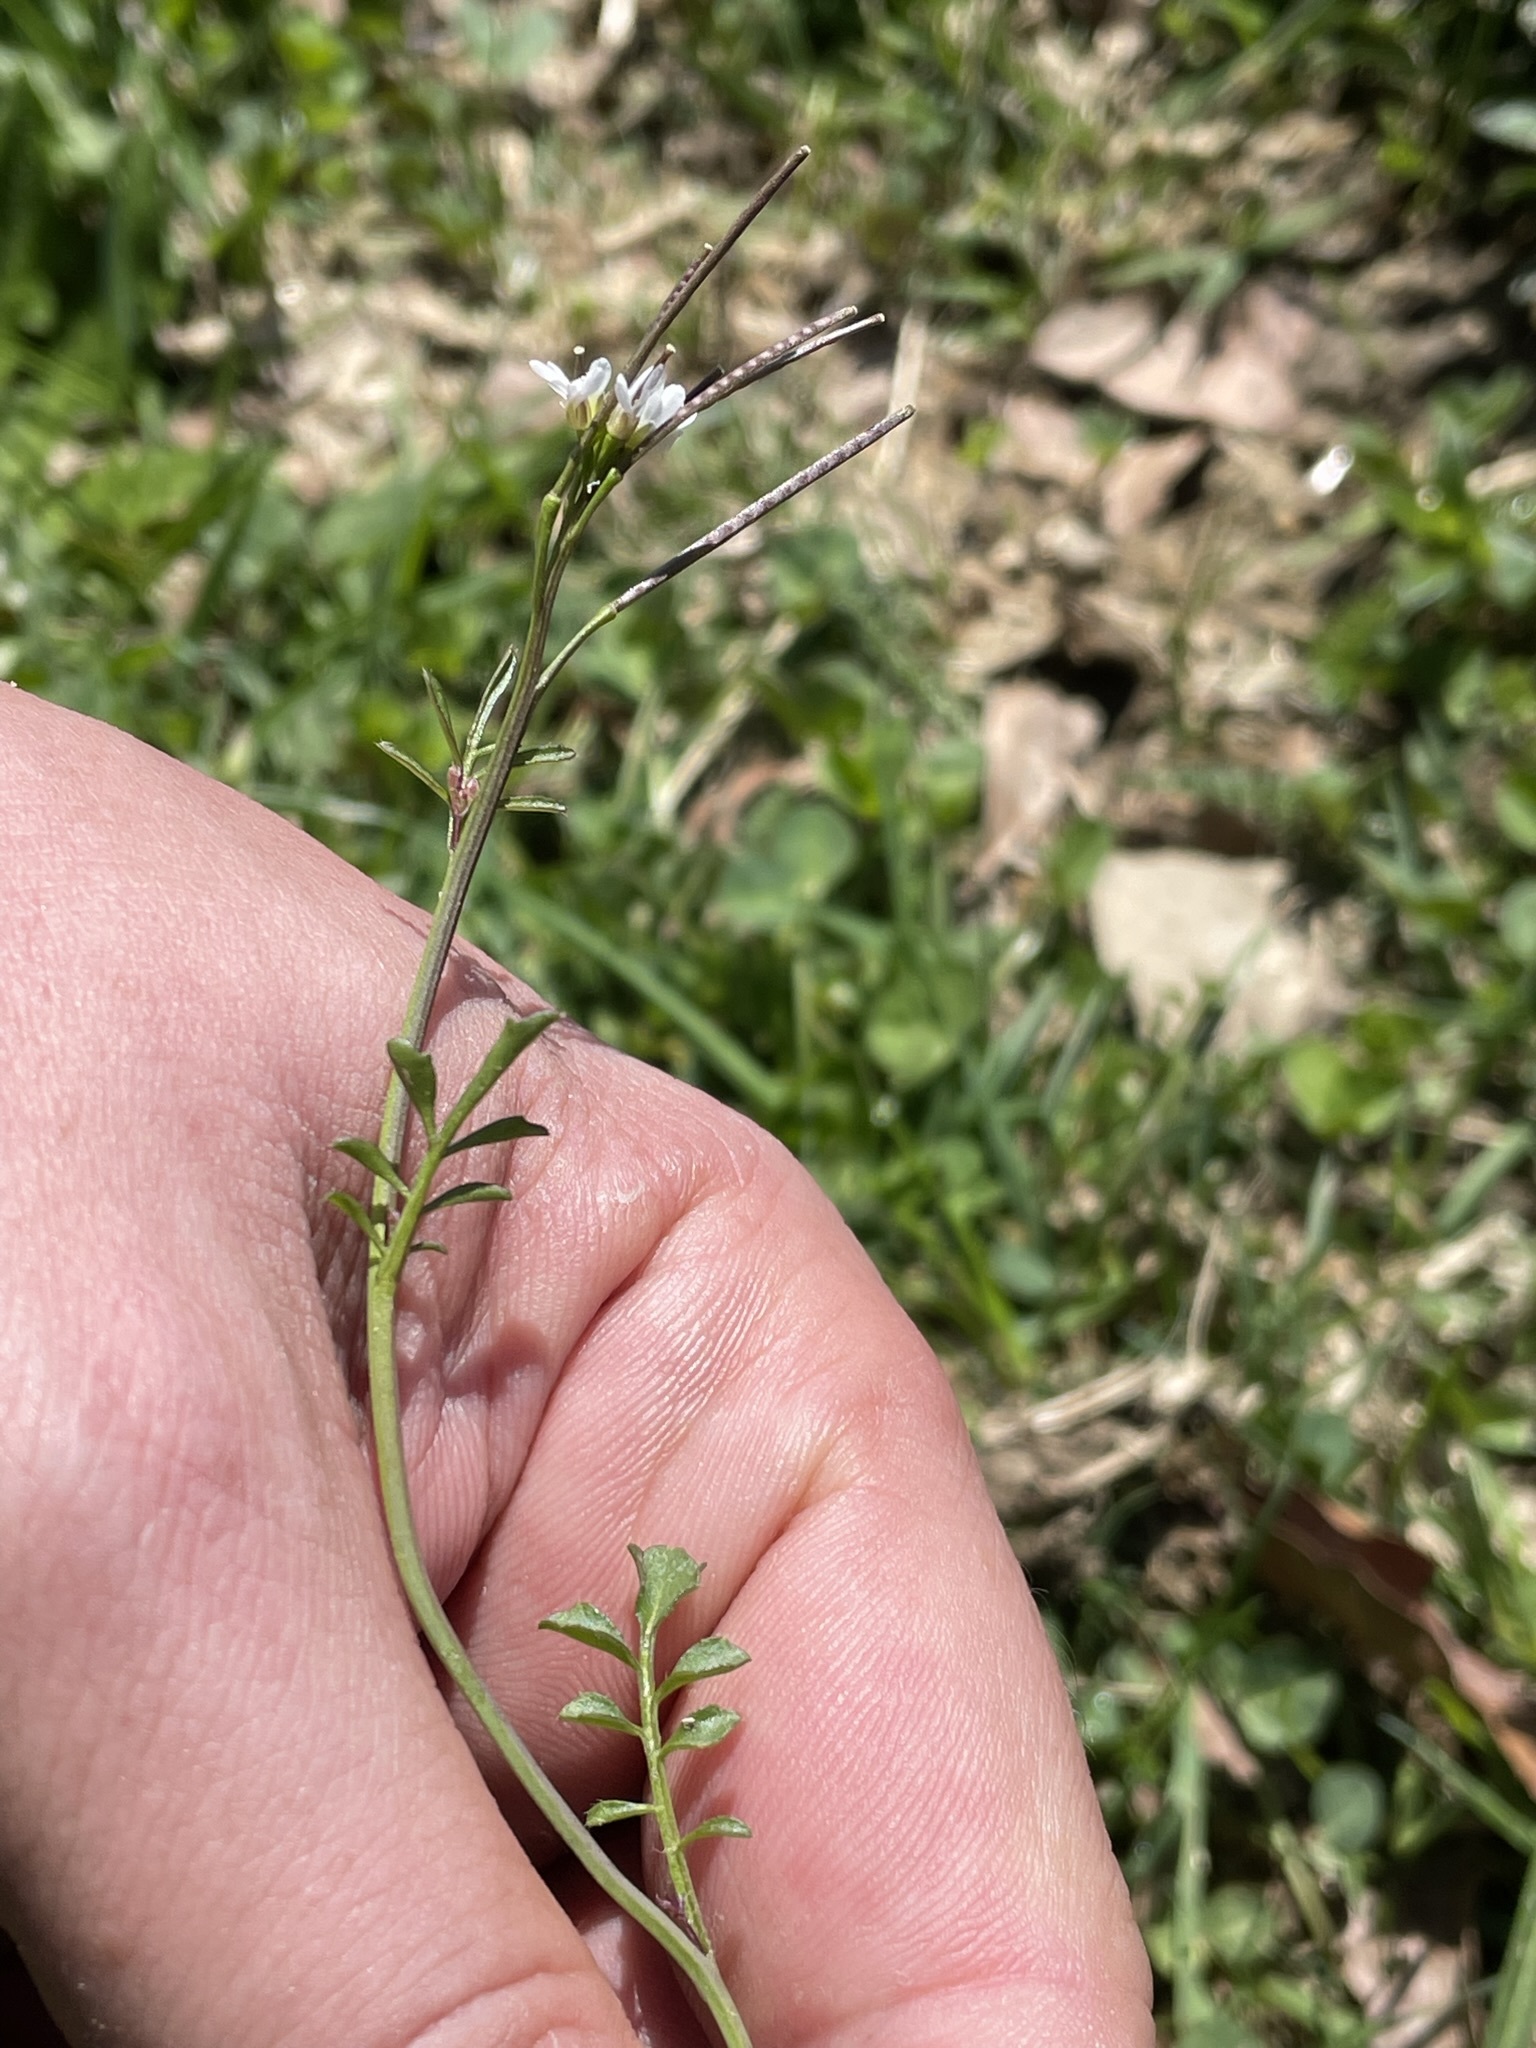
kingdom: Plantae
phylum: Tracheophyta
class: Magnoliopsida
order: Brassicales
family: Brassicaceae
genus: Cardamine
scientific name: Cardamine hirsuta
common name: Hairy bittercress
